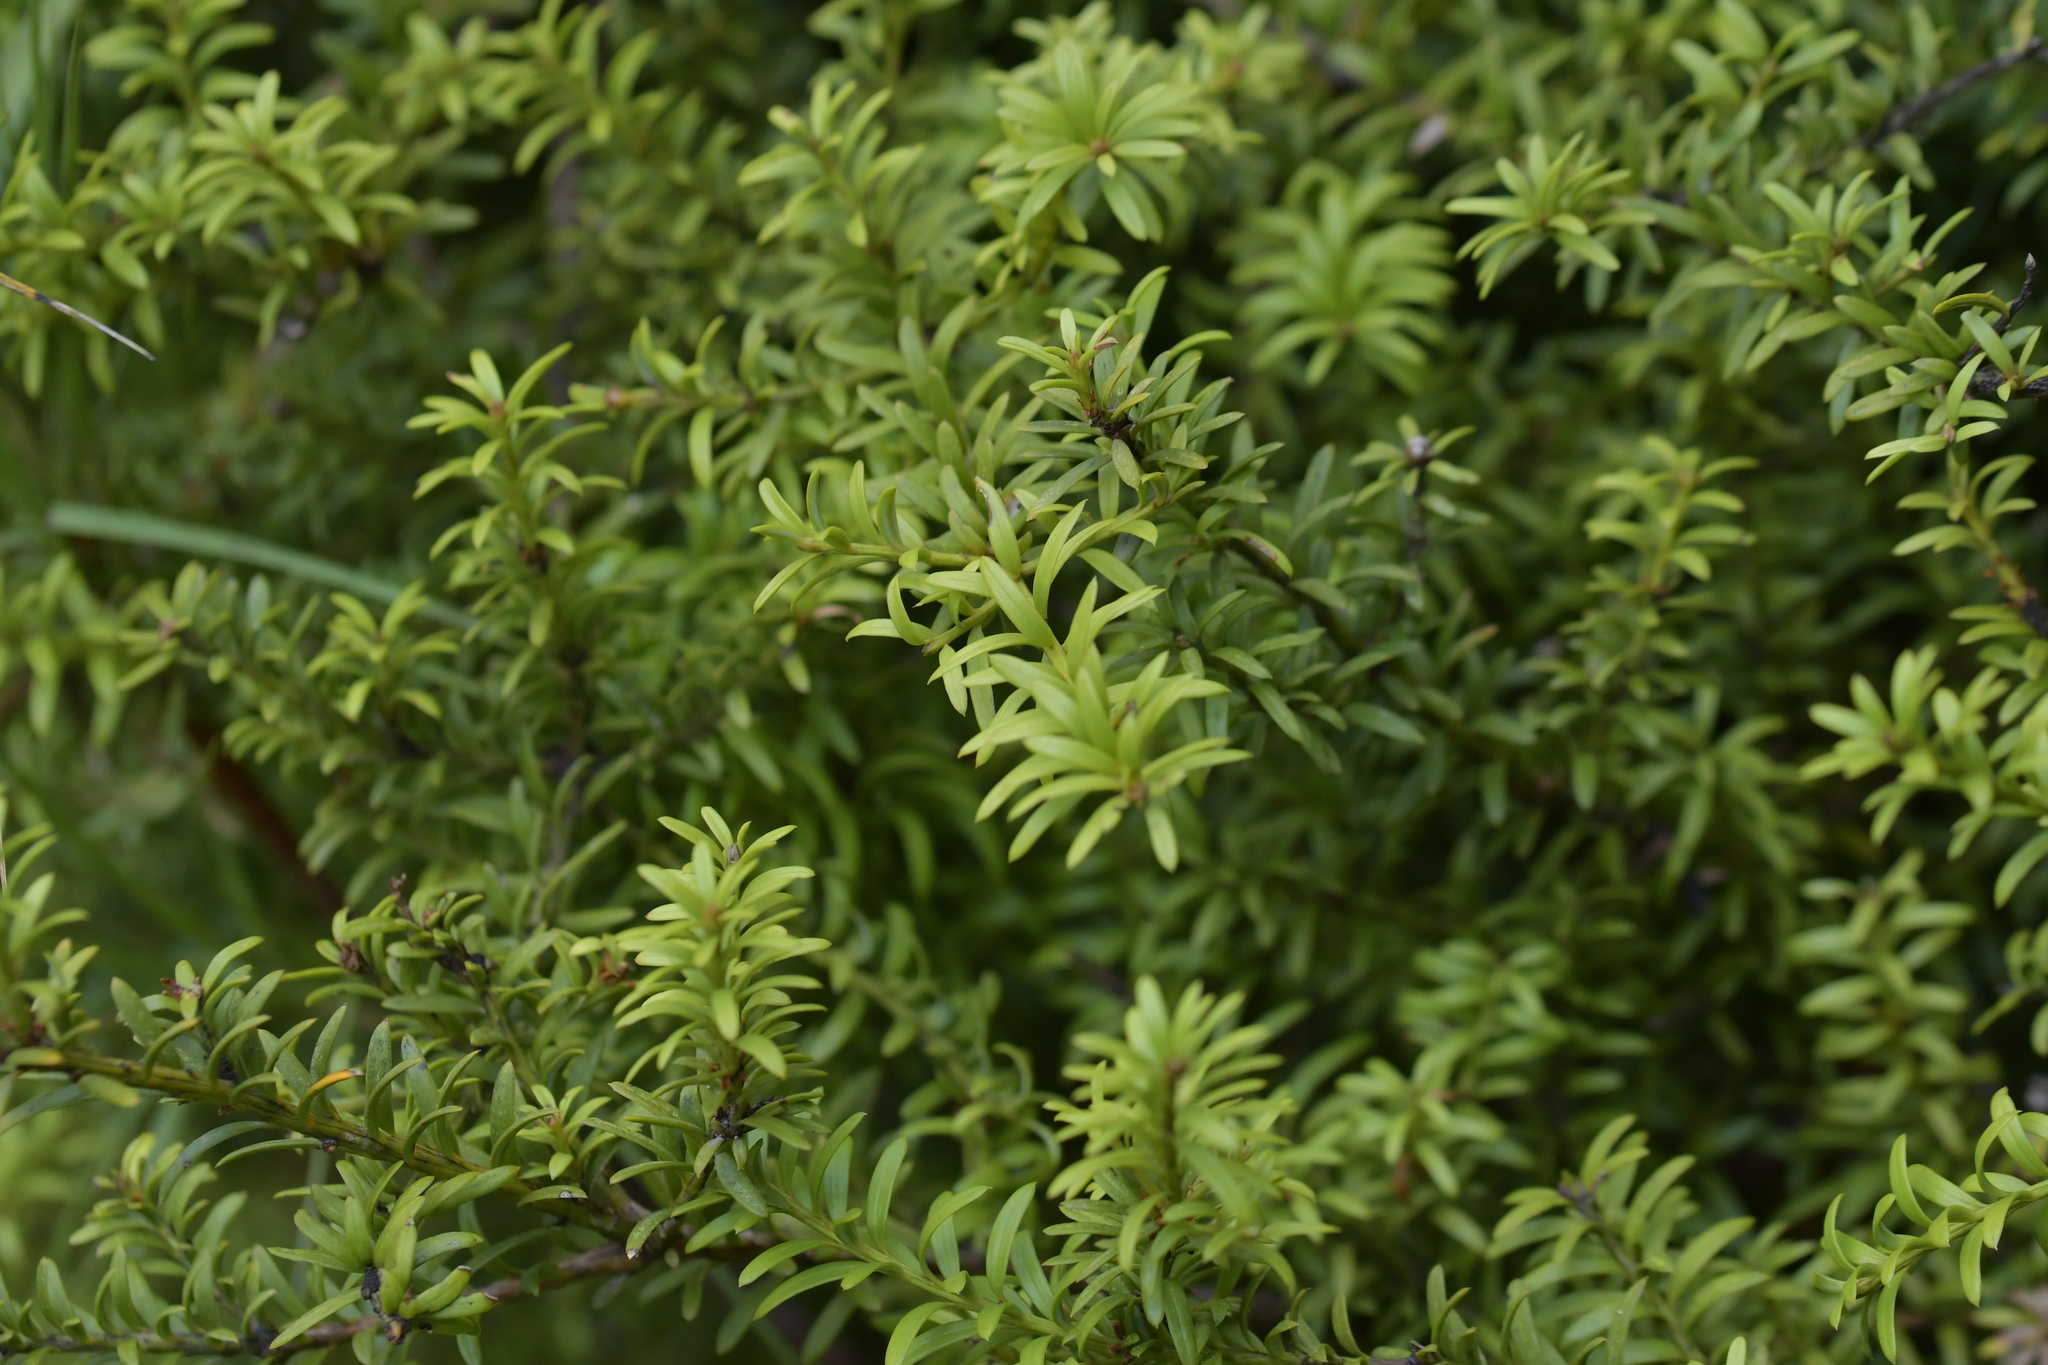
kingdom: Plantae
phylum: Tracheophyta
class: Pinopsida
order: Pinales
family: Podocarpaceae
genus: Podocarpus
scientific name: Podocarpus nivalis
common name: Alpine totara
